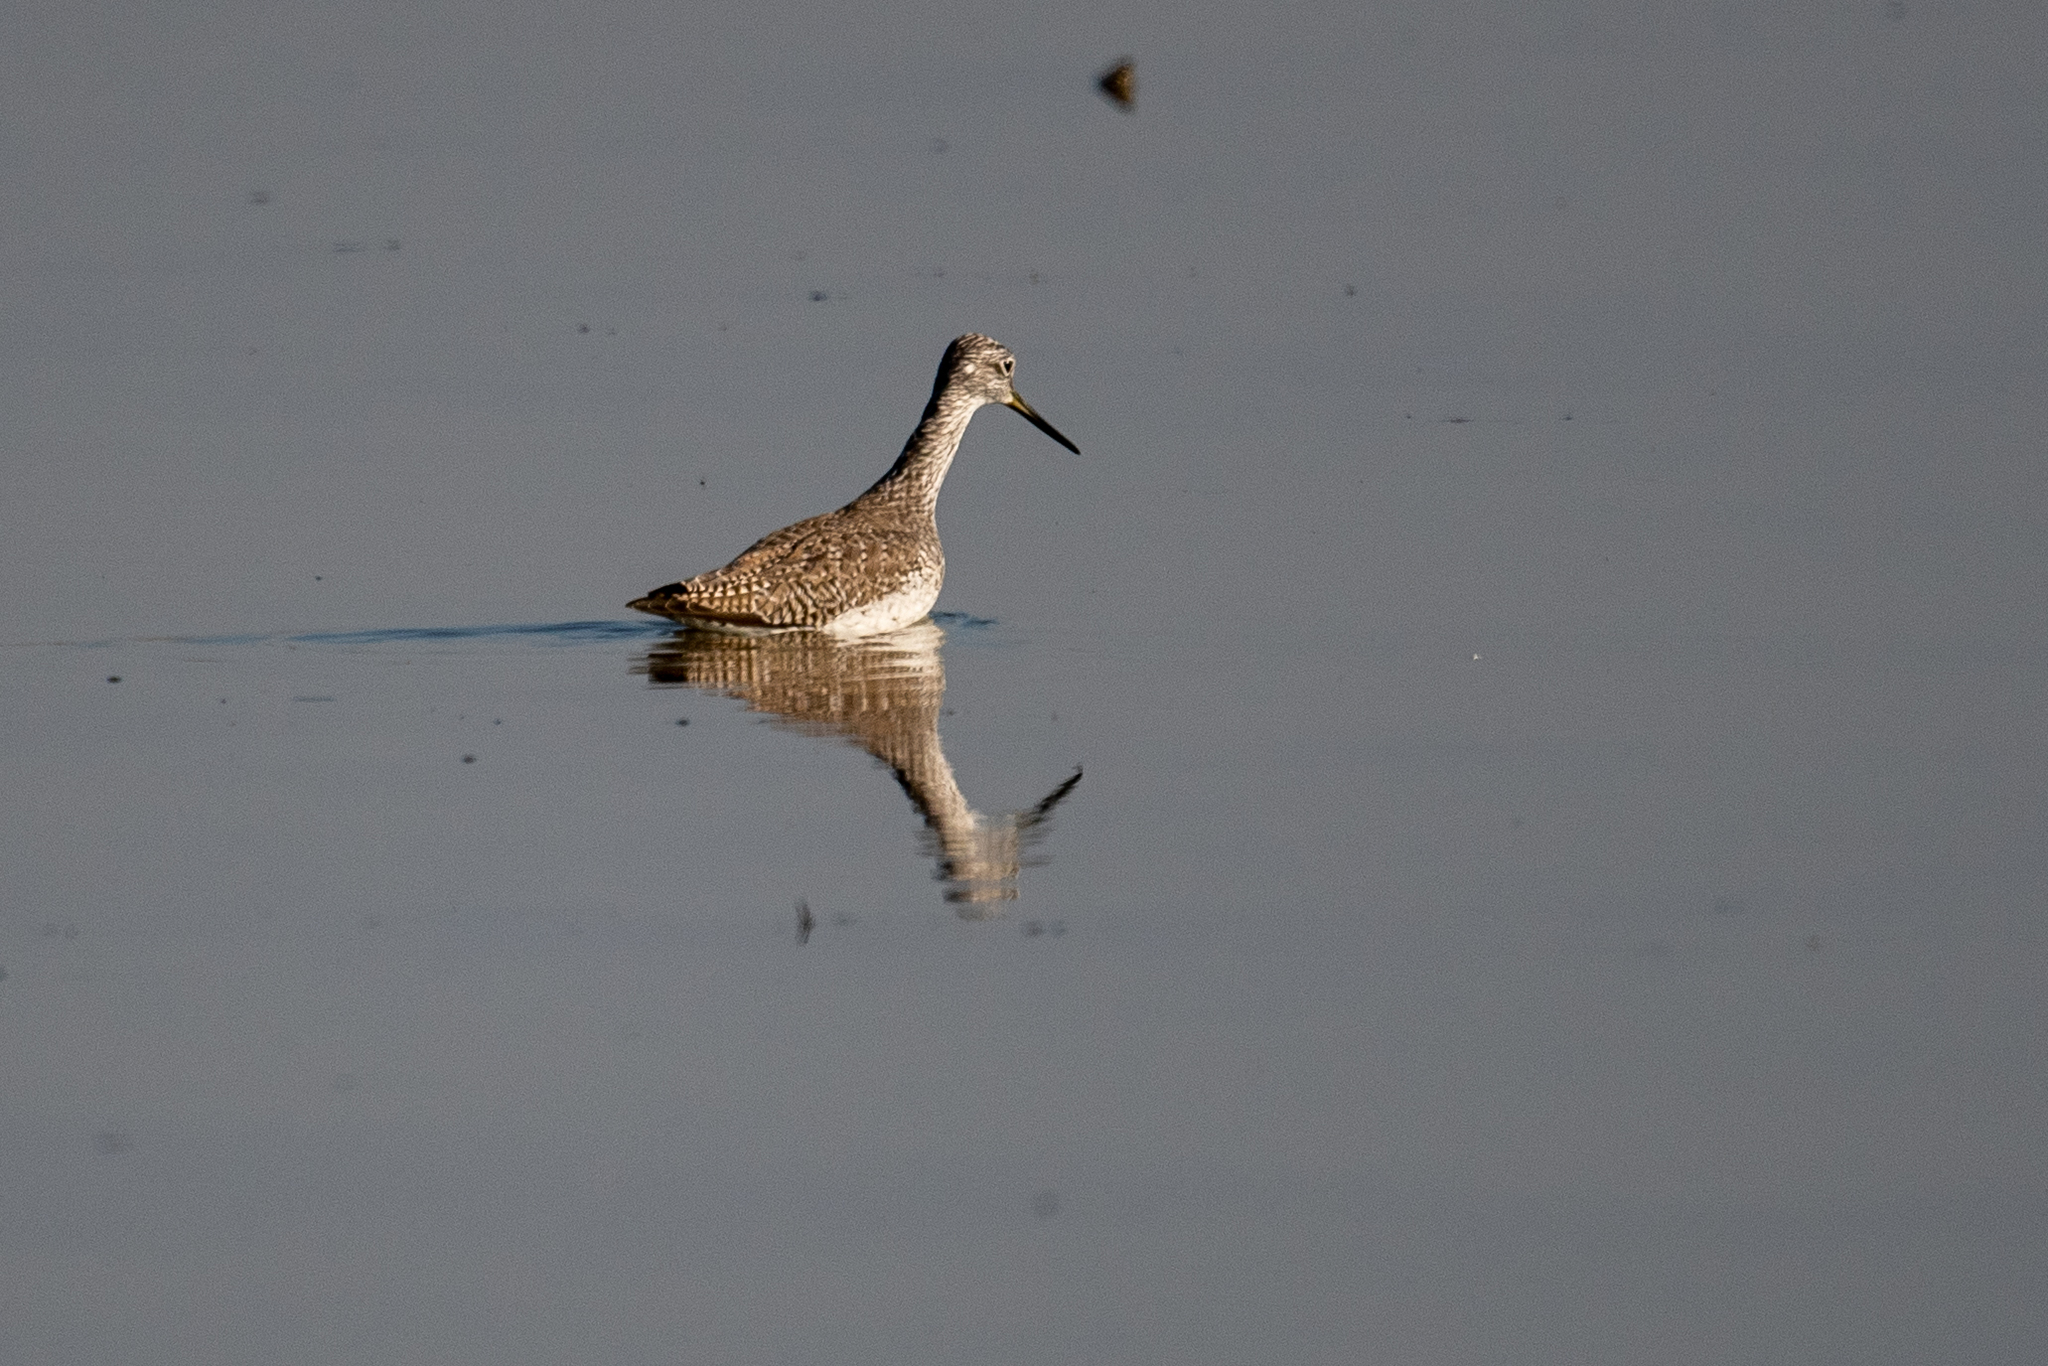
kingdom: Animalia
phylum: Chordata
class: Aves
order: Charadriiformes
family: Scolopacidae
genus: Tringa
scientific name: Tringa melanoleuca
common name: Greater yellowlegs
